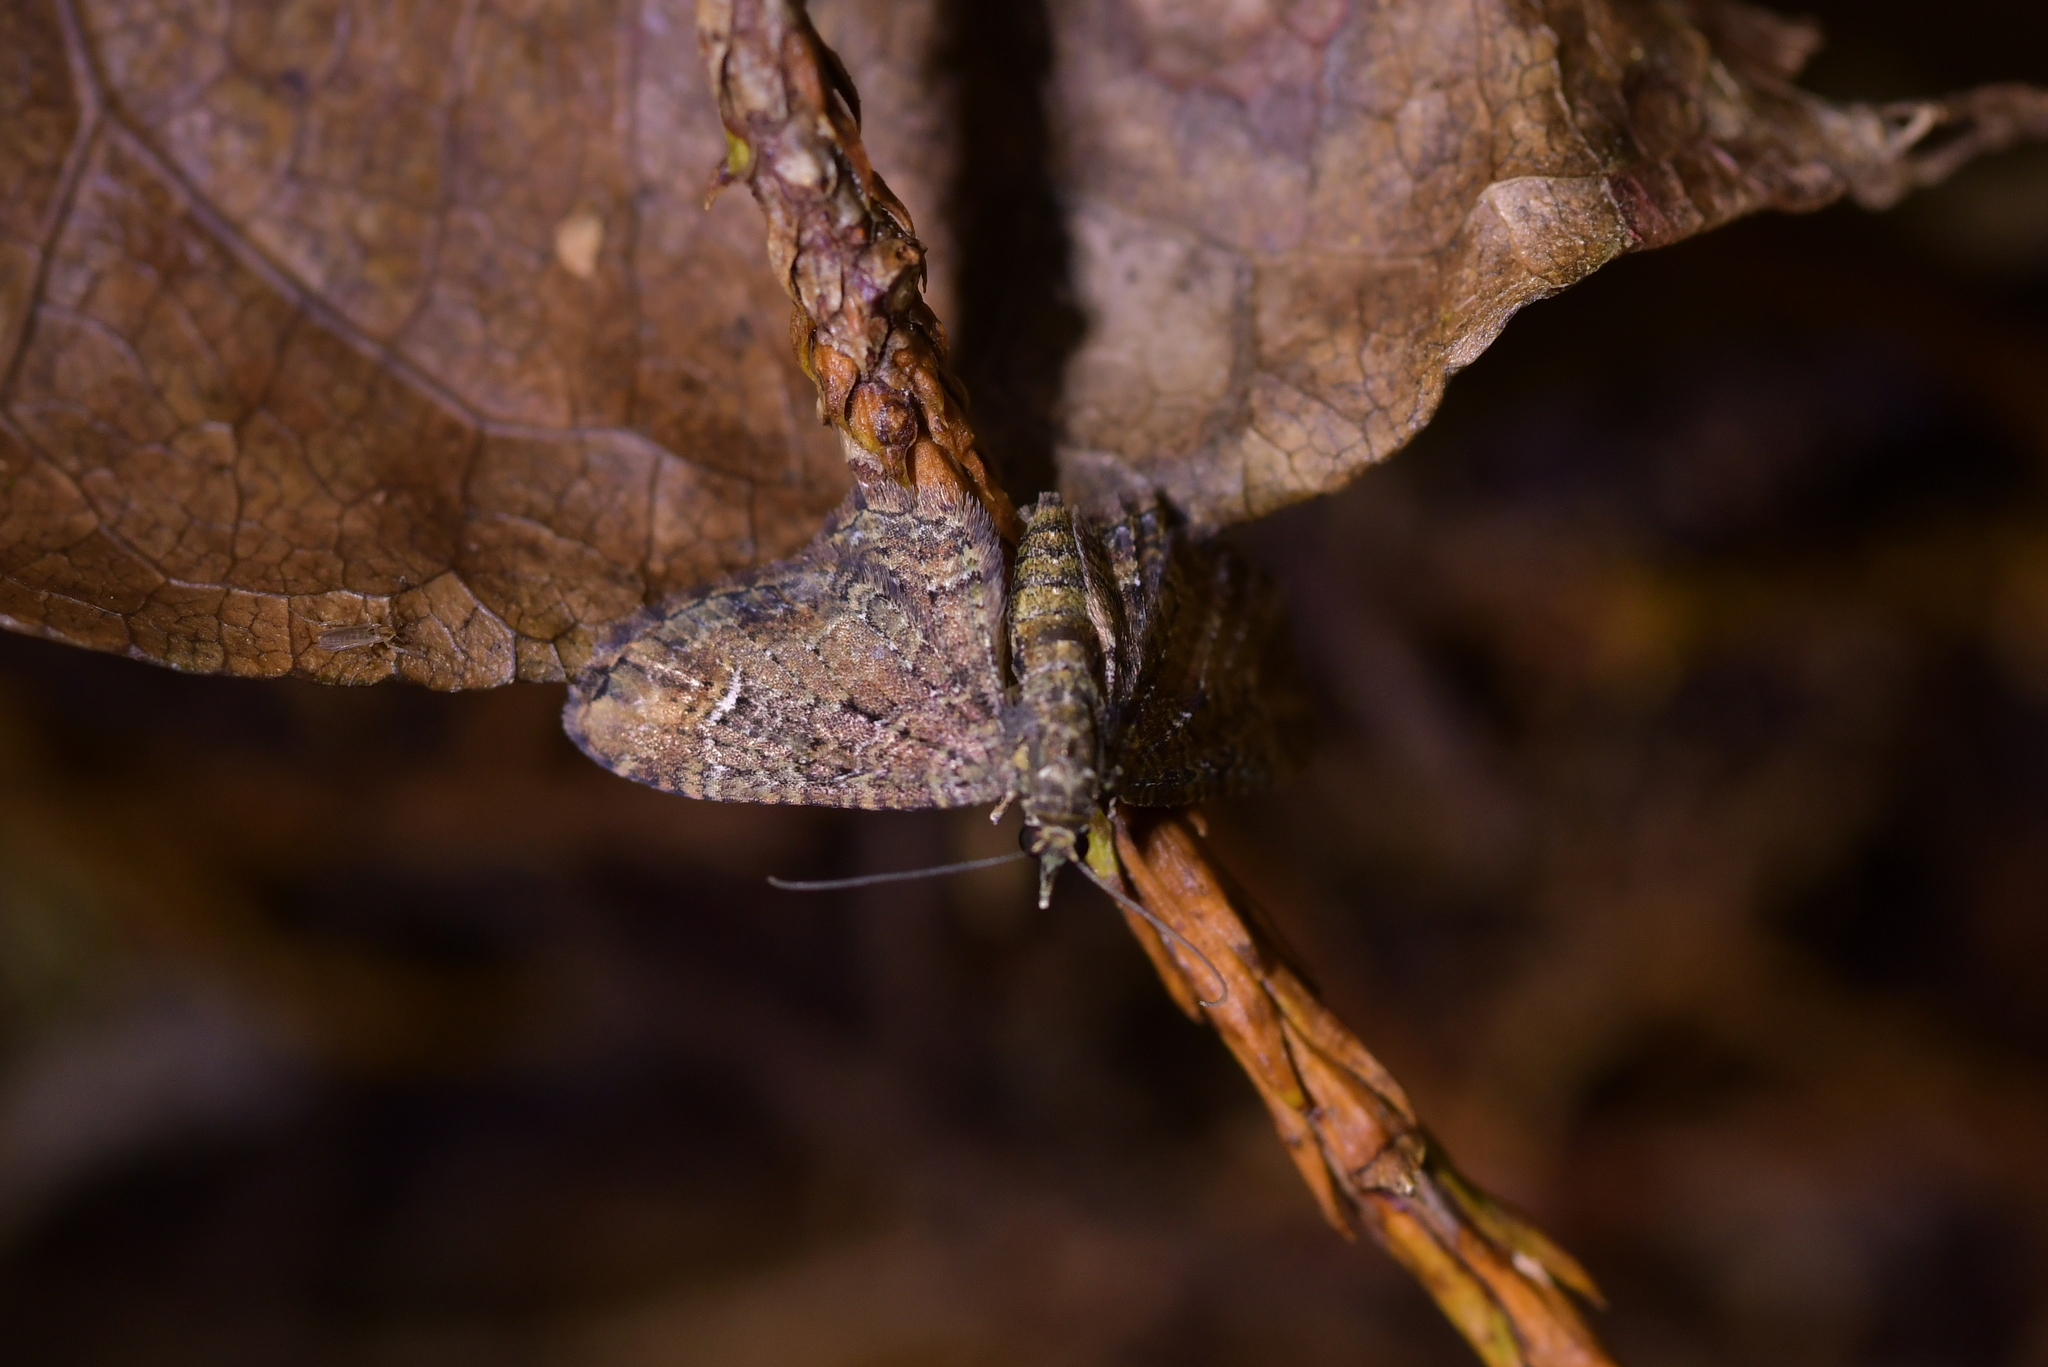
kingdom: Animalia
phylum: Arthropoda
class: Insecta
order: Lepidoptera
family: Geometridae
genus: Pasiphilodes
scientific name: Pasiphilodes testulata
